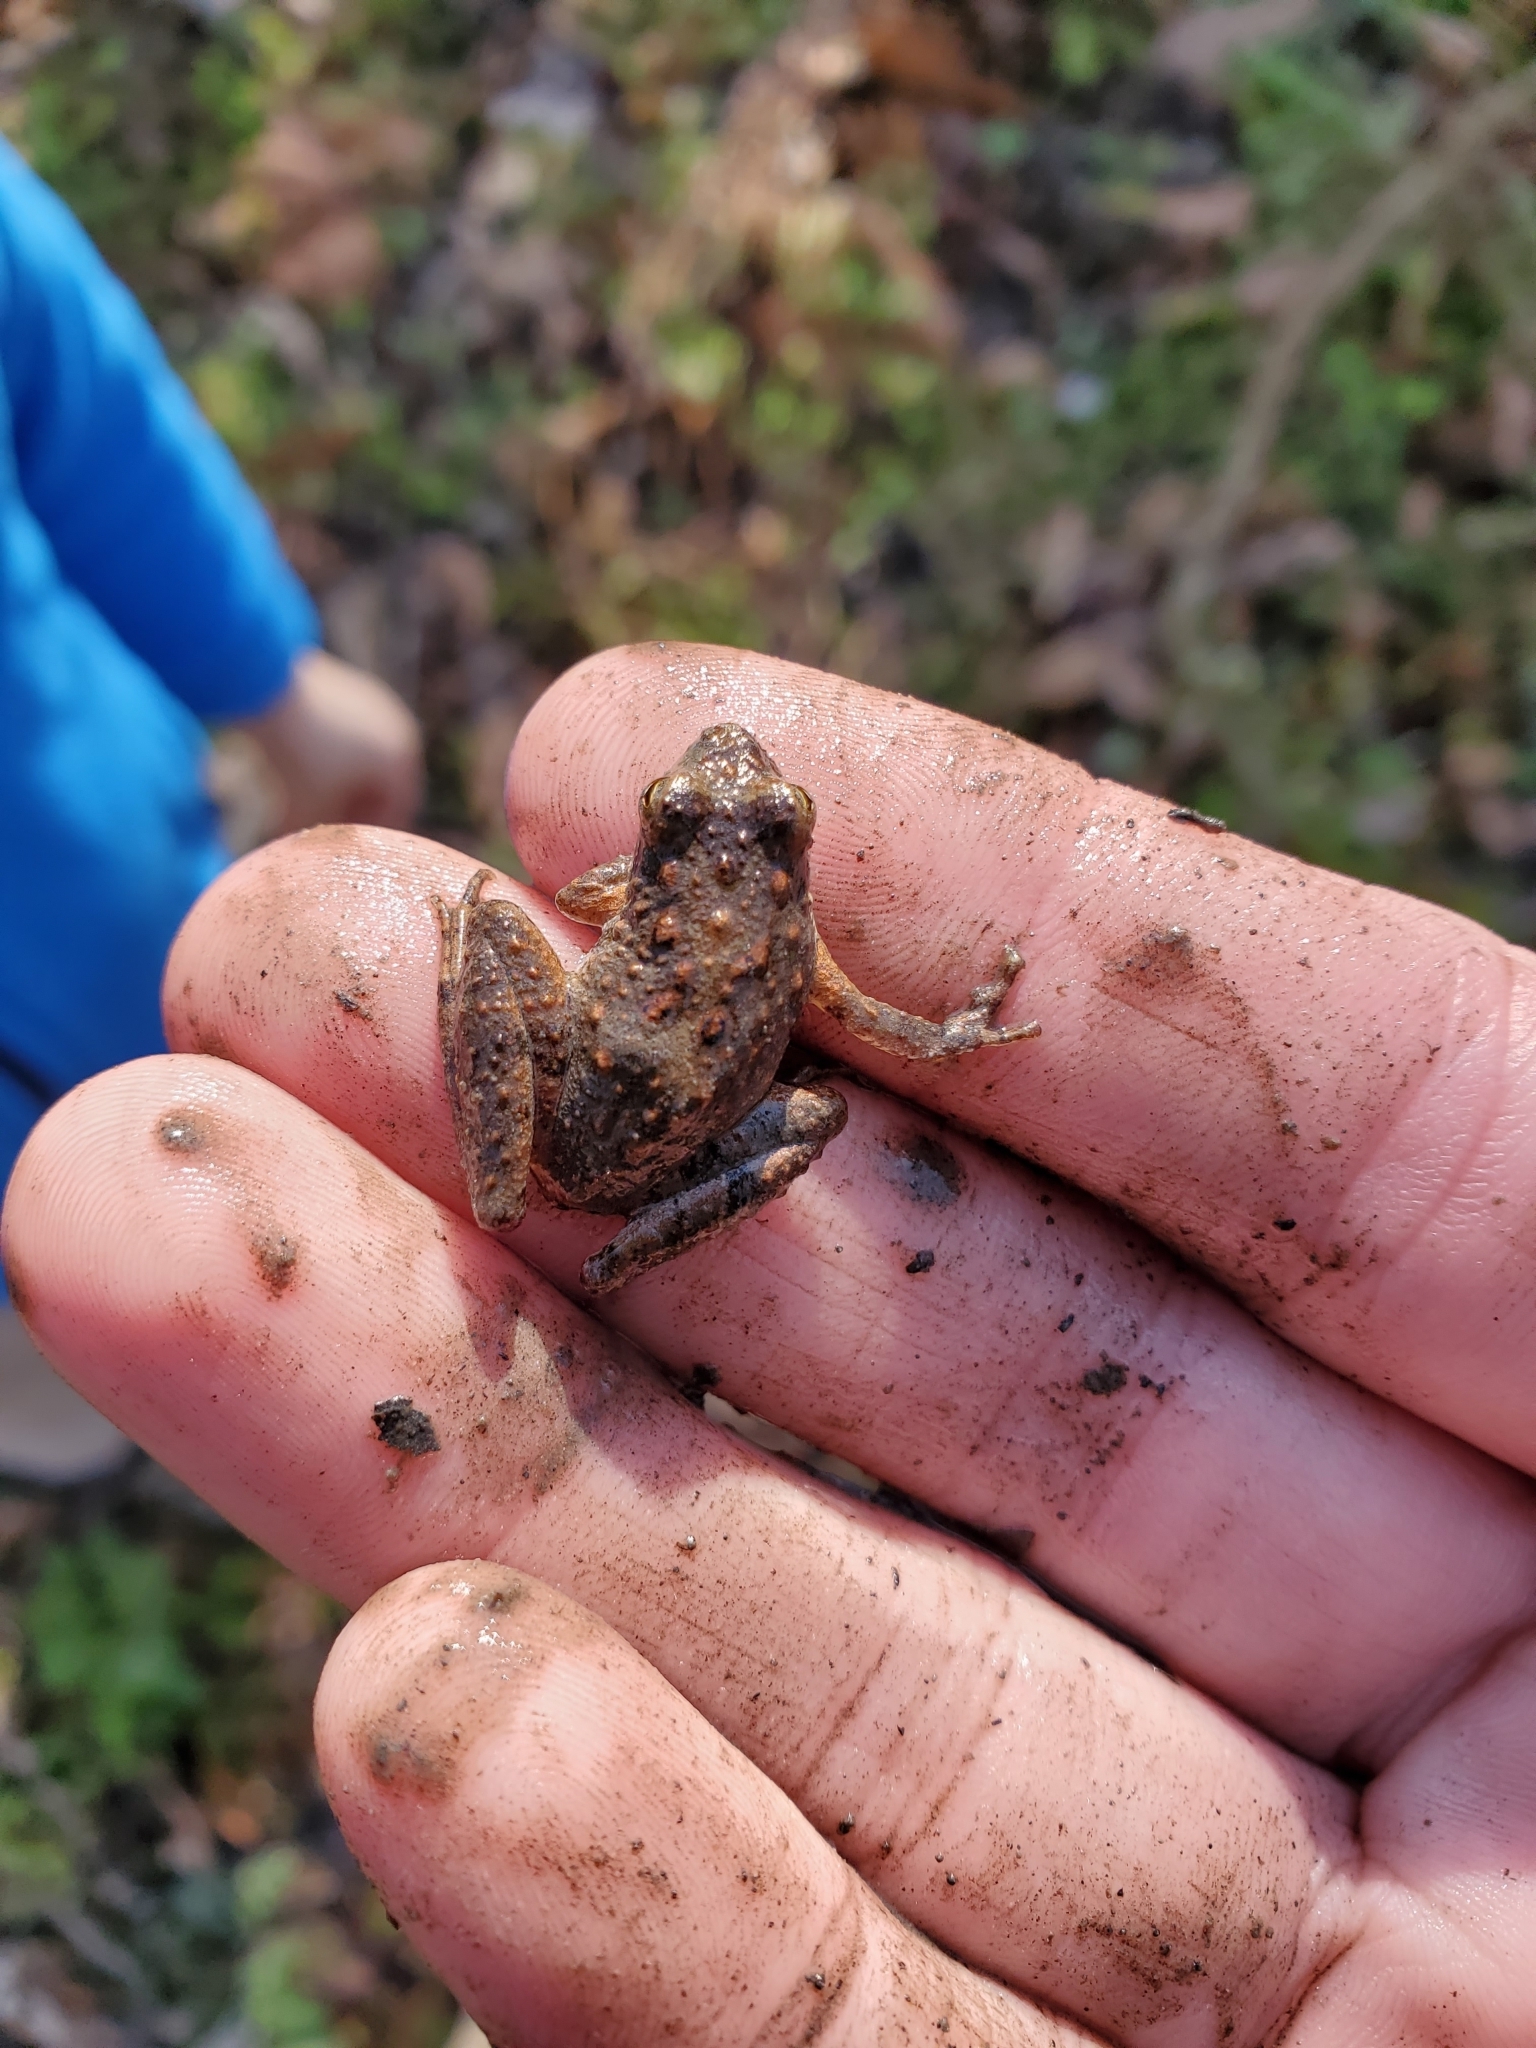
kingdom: Animalia
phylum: Chordata
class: Amphibia
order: Anura
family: Hylidae
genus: Acris
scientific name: Acris blanchardi
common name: Blanchard's cricket frog
